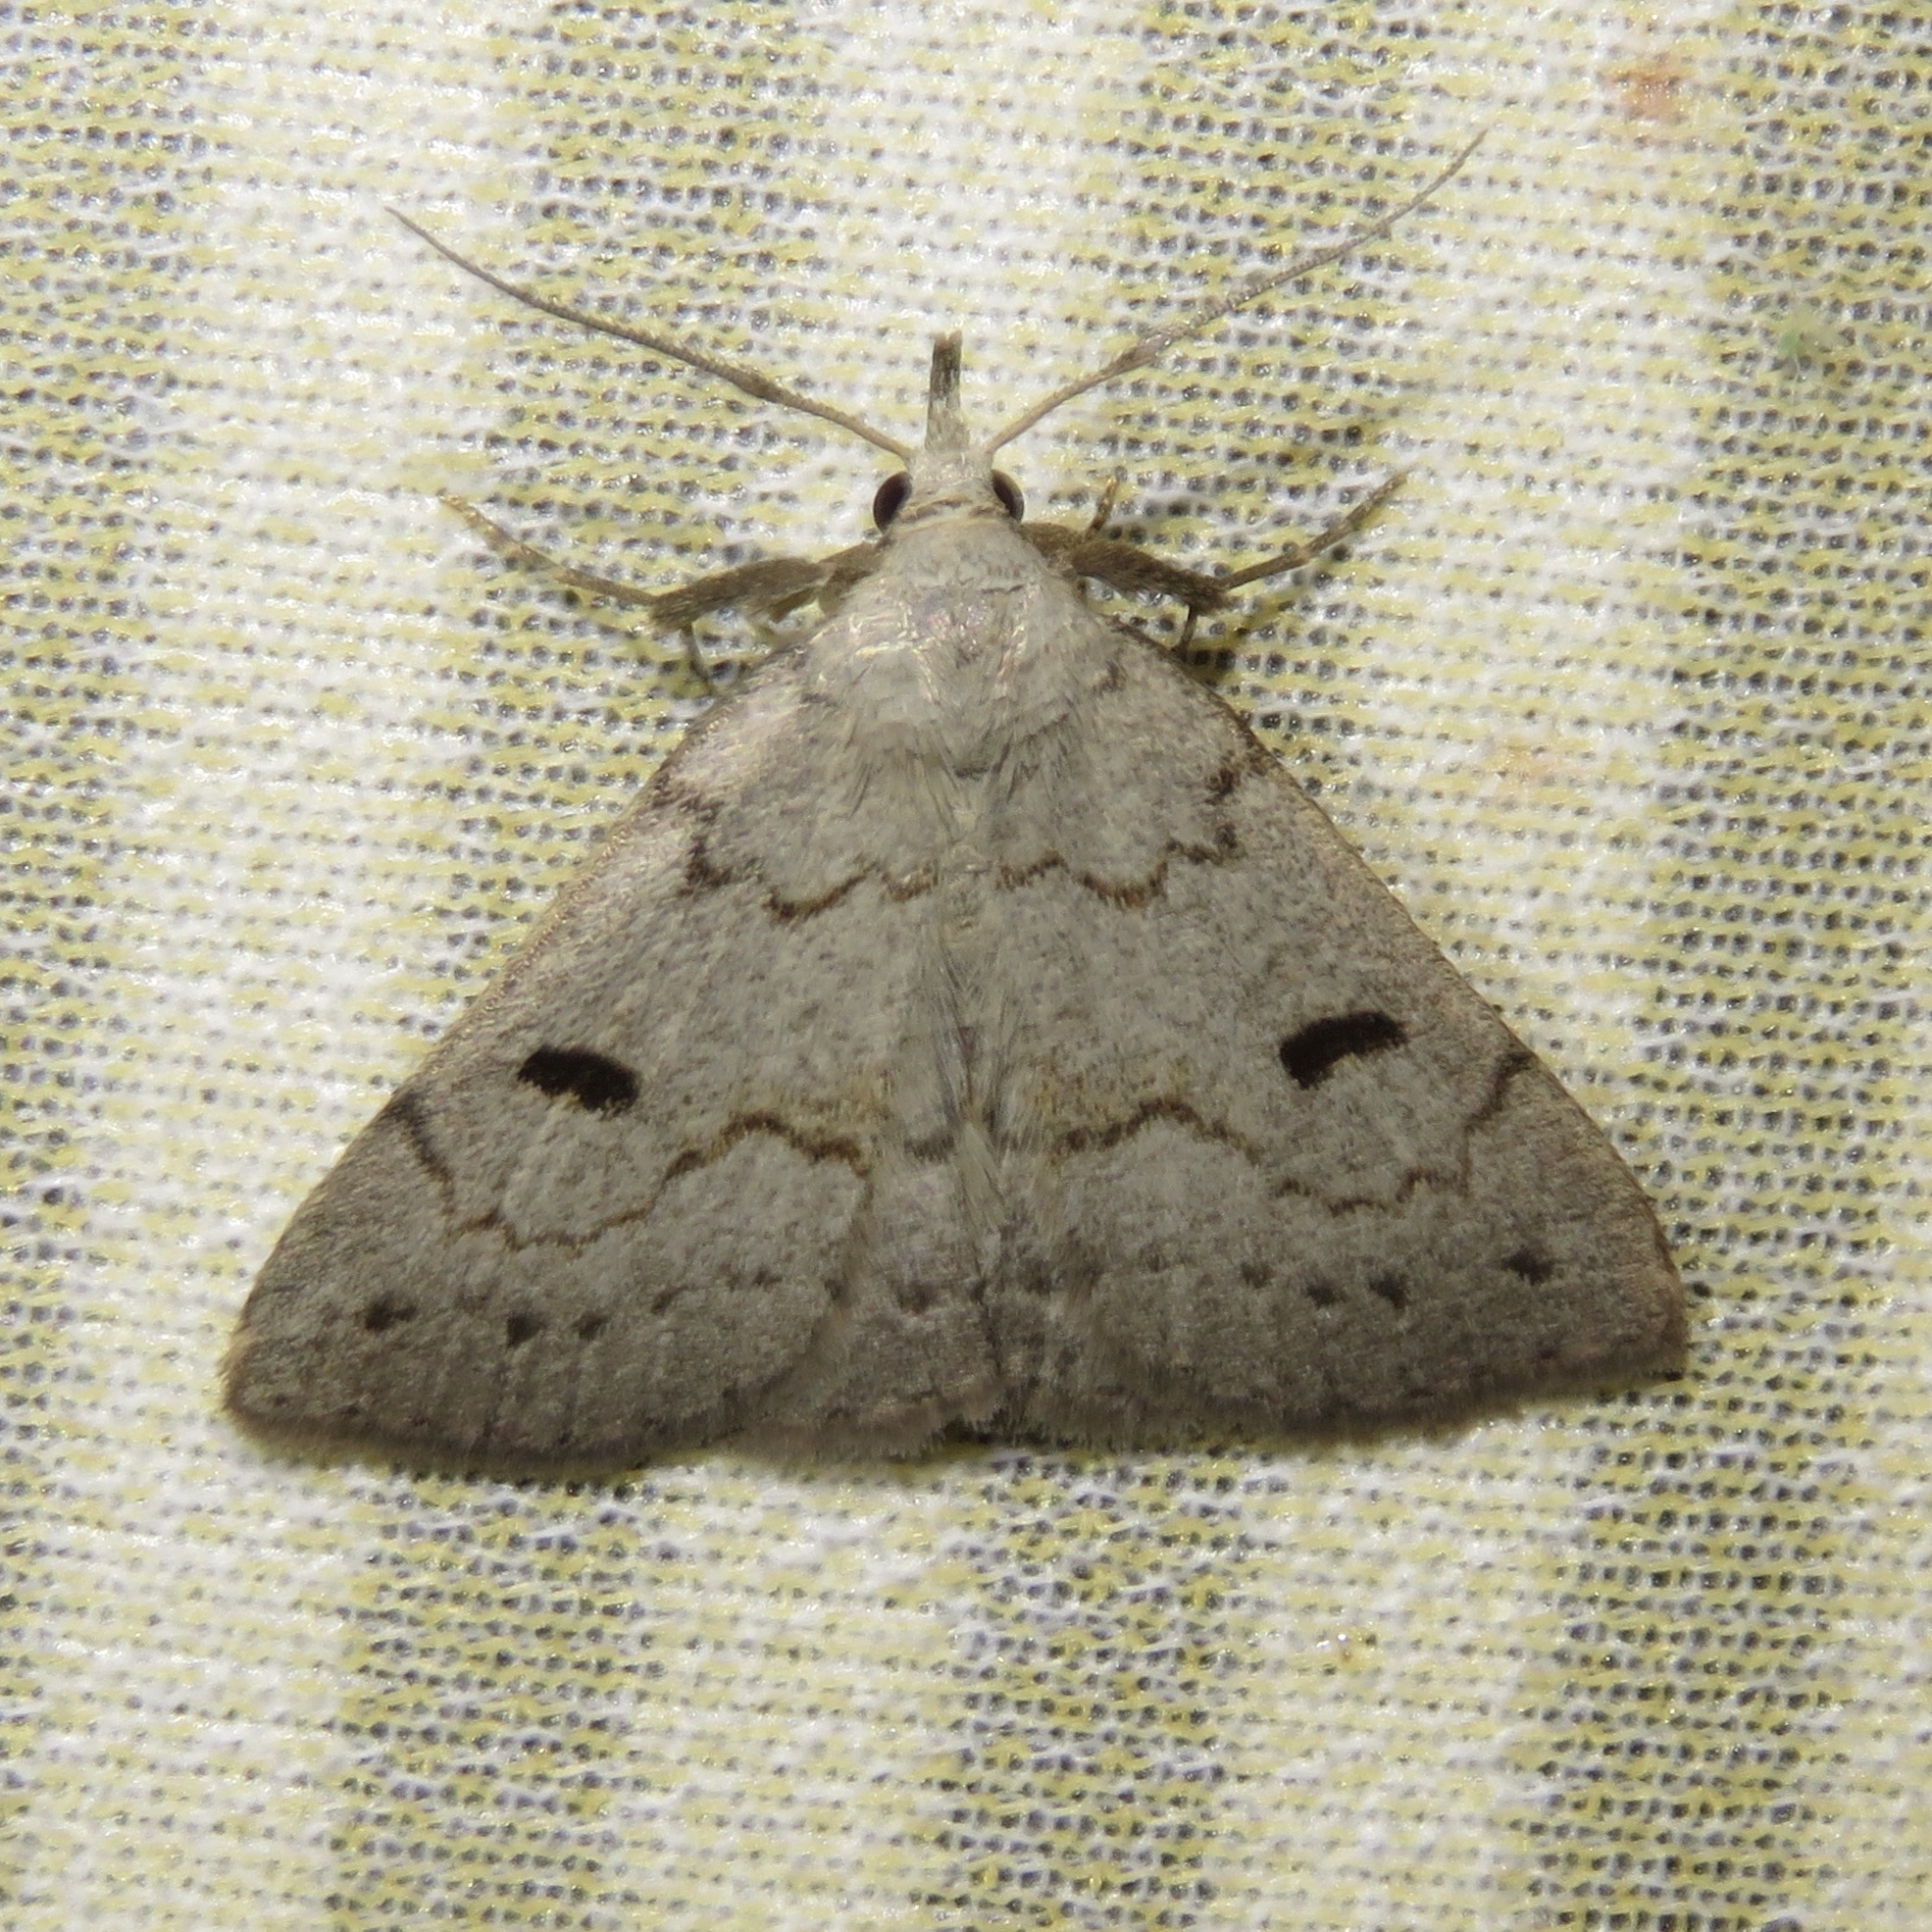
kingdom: Animalia
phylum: Arthropoda
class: Insecta
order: Lepidoptera
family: Erebidae
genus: Macrochilo
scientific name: Macrochilo morbidalis
